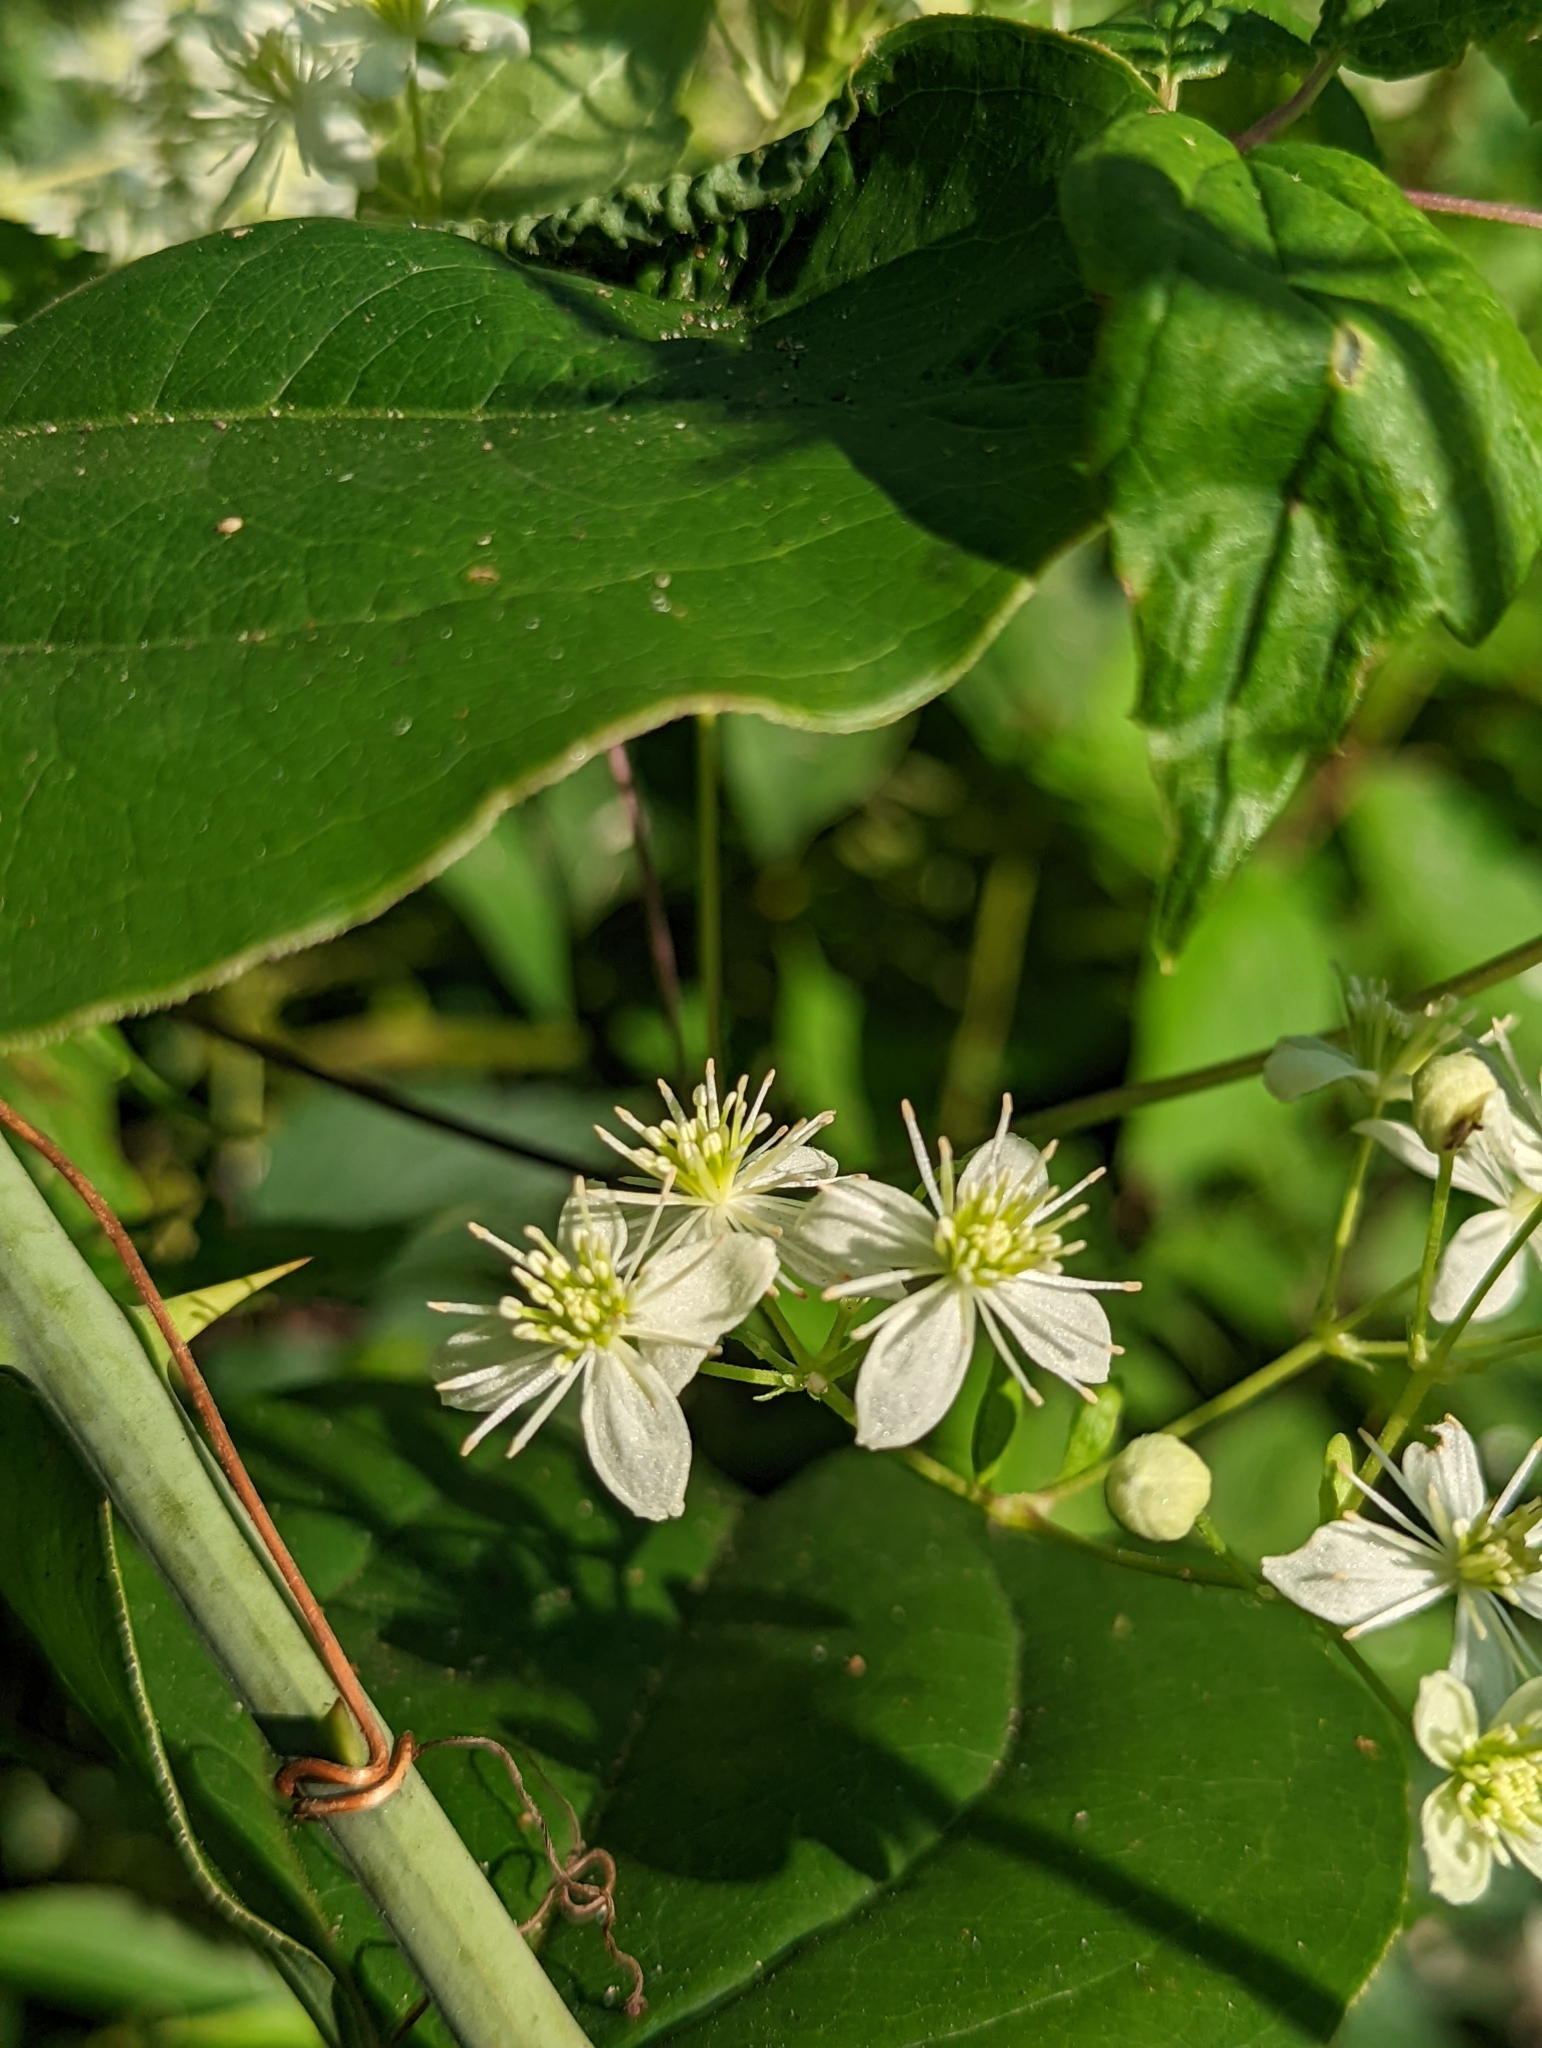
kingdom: Plantae
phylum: Tracheophyta
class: Magnoliopsida
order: Ranunculales
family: Ranunculaceae
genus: Clematis
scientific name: Clematis virginiana
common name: Virgin's-bower
